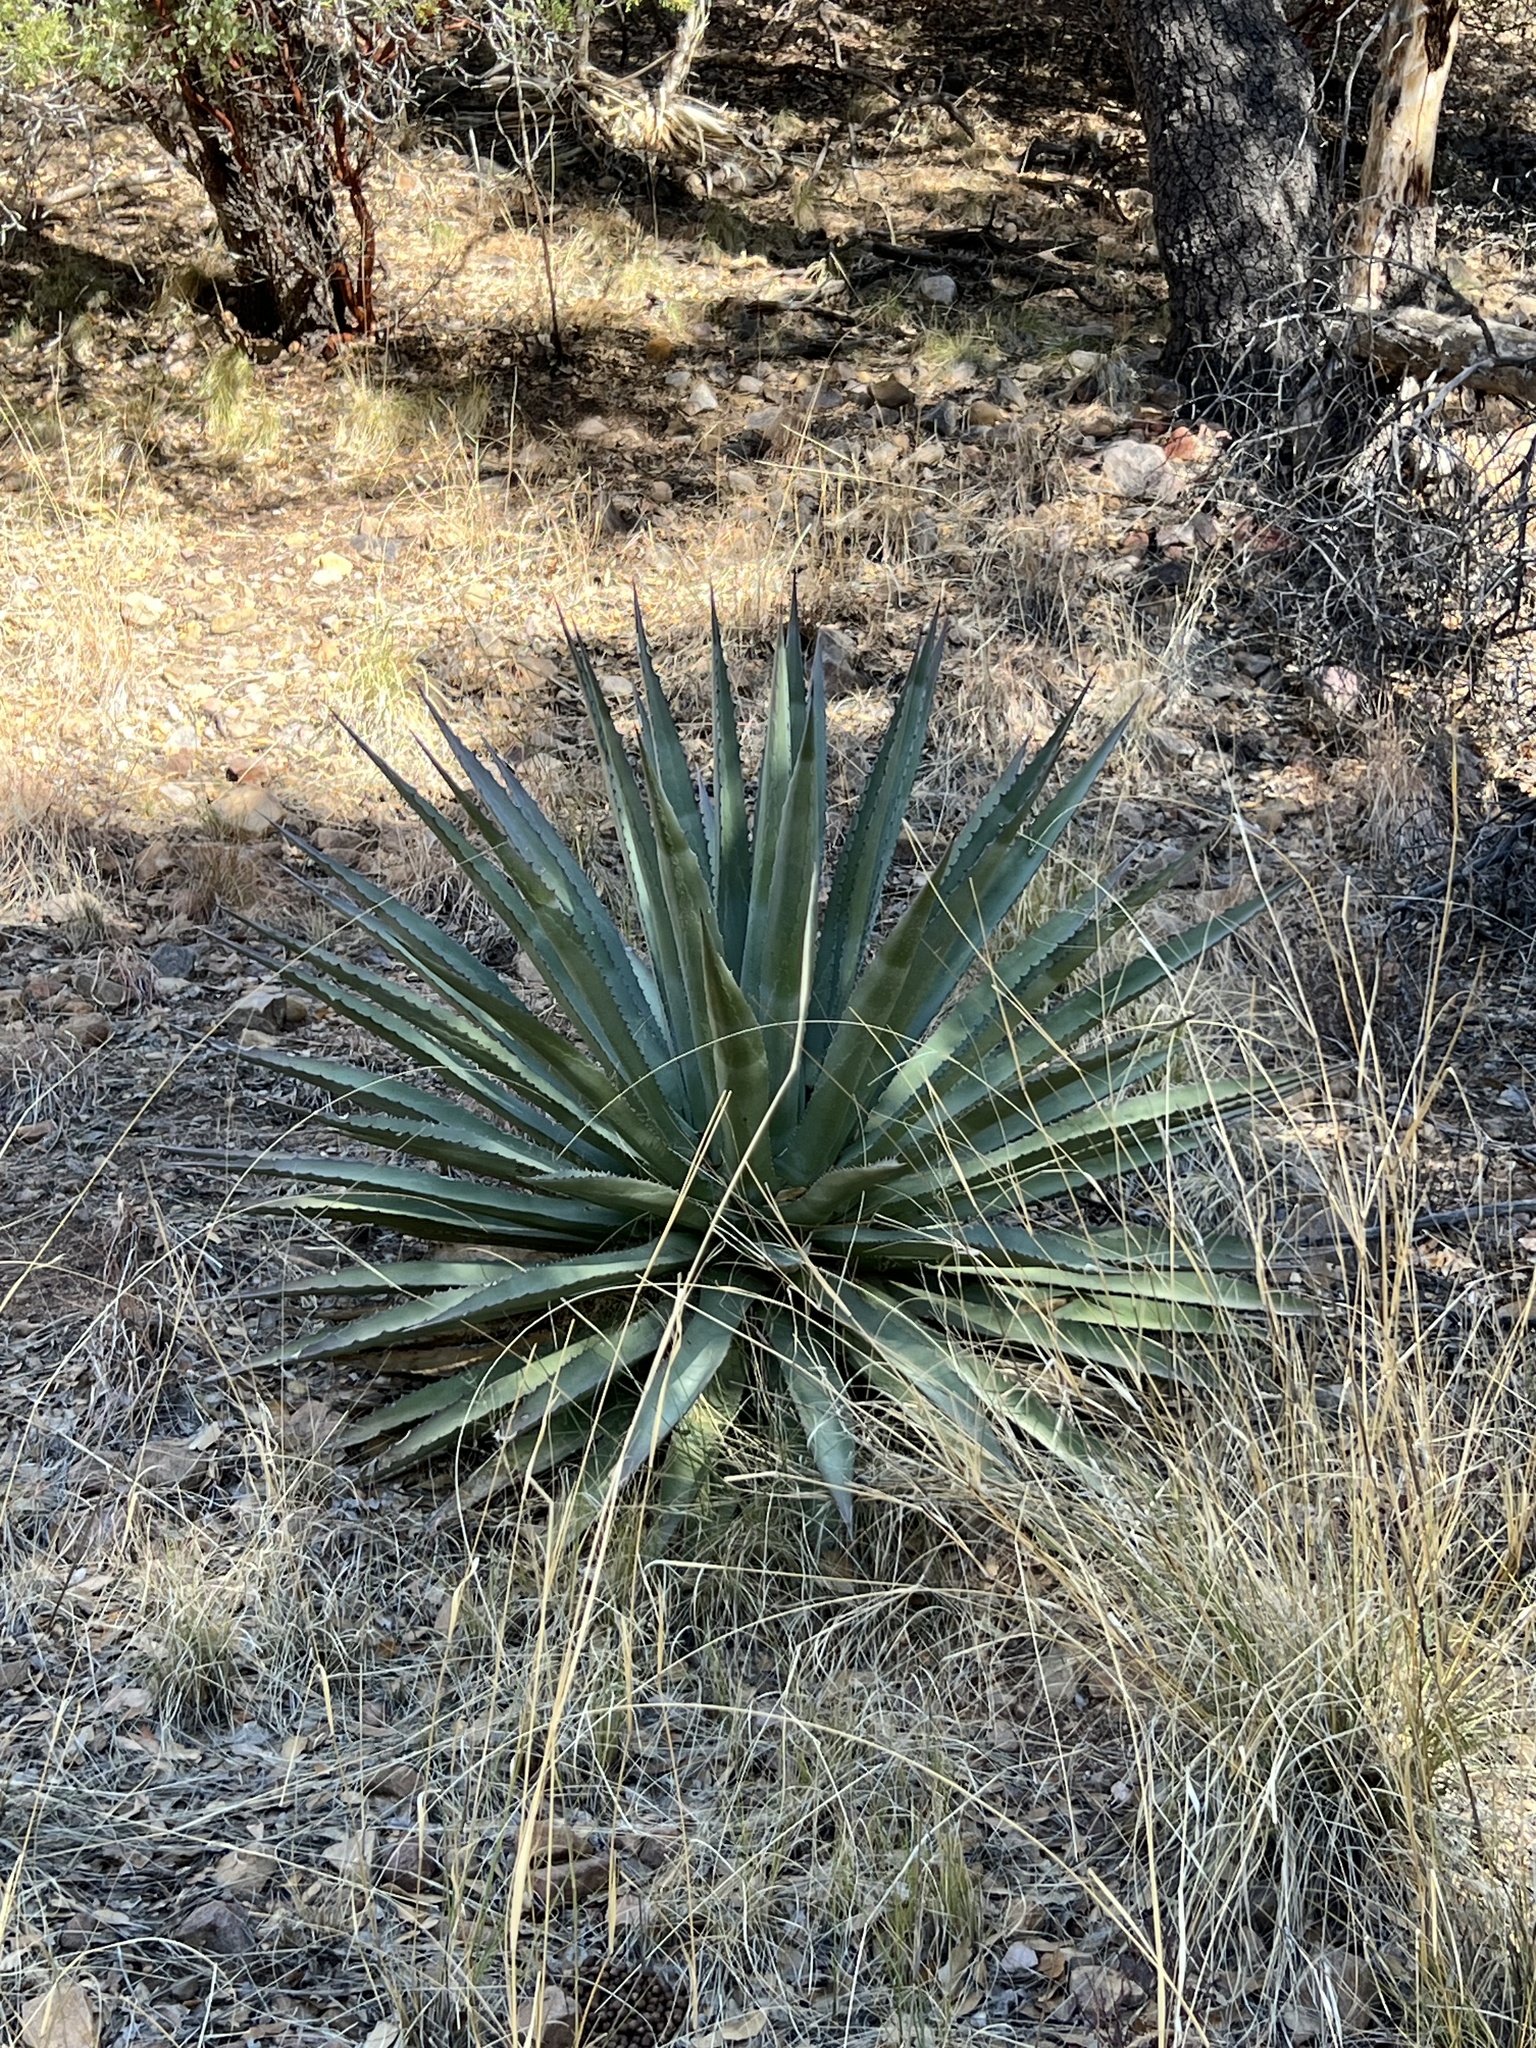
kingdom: Plantae
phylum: Tracheophyta
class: Liliopsida
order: Asparagales
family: Asparagaceae
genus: Agave
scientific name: Agave palmeri
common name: Palmer agave
